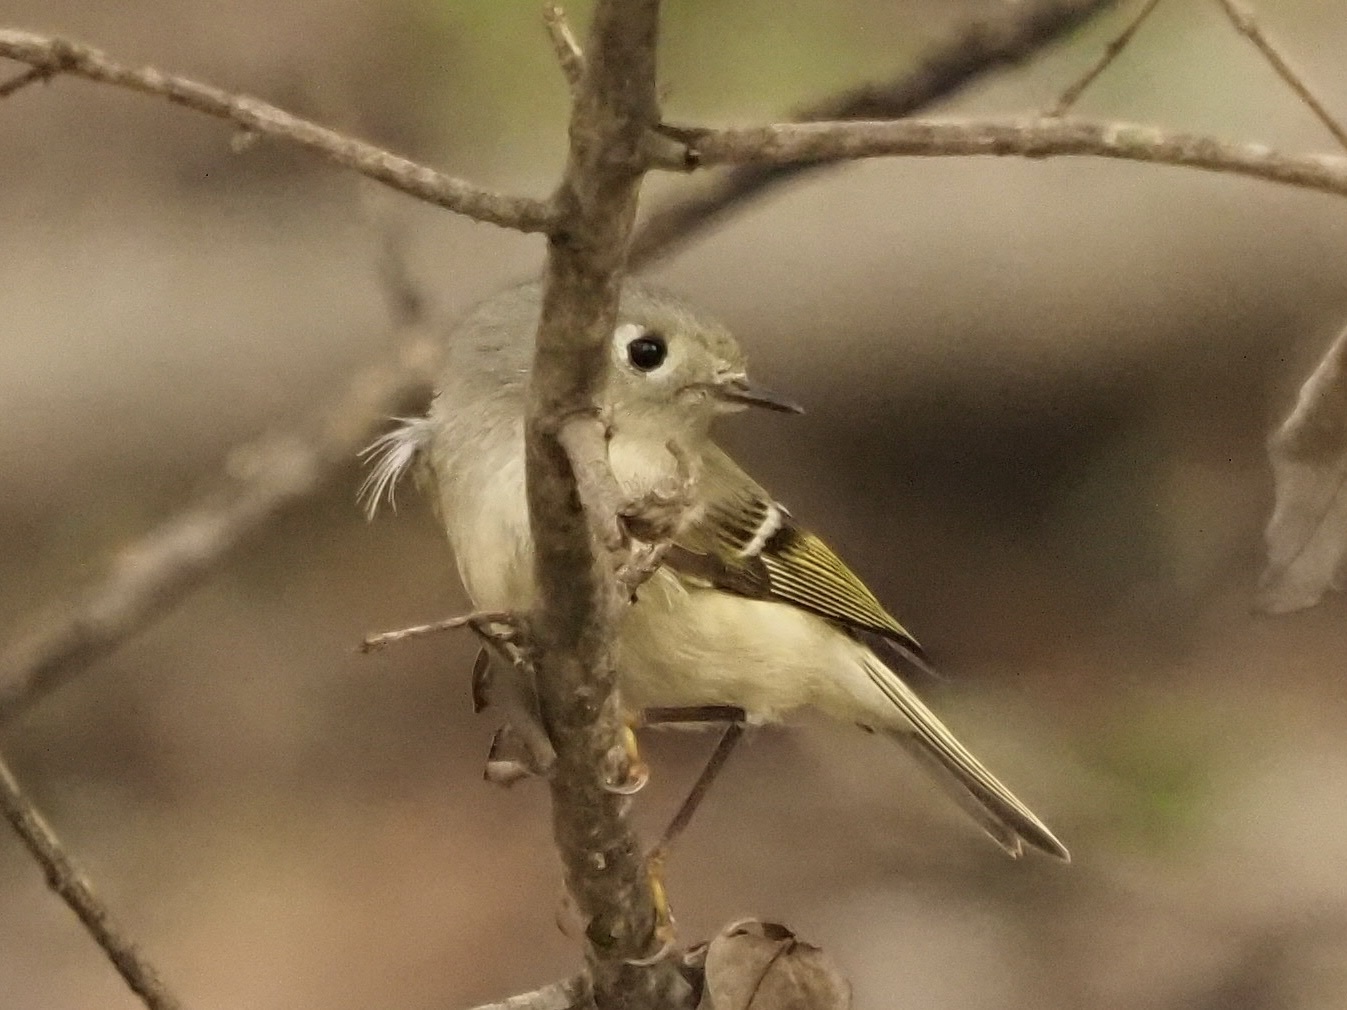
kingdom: Animalia
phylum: Chordata
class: Aves
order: Passeriformes
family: Regulidae
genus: Regulus
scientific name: Regulus calendula
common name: Ruby-crowned kinglet
